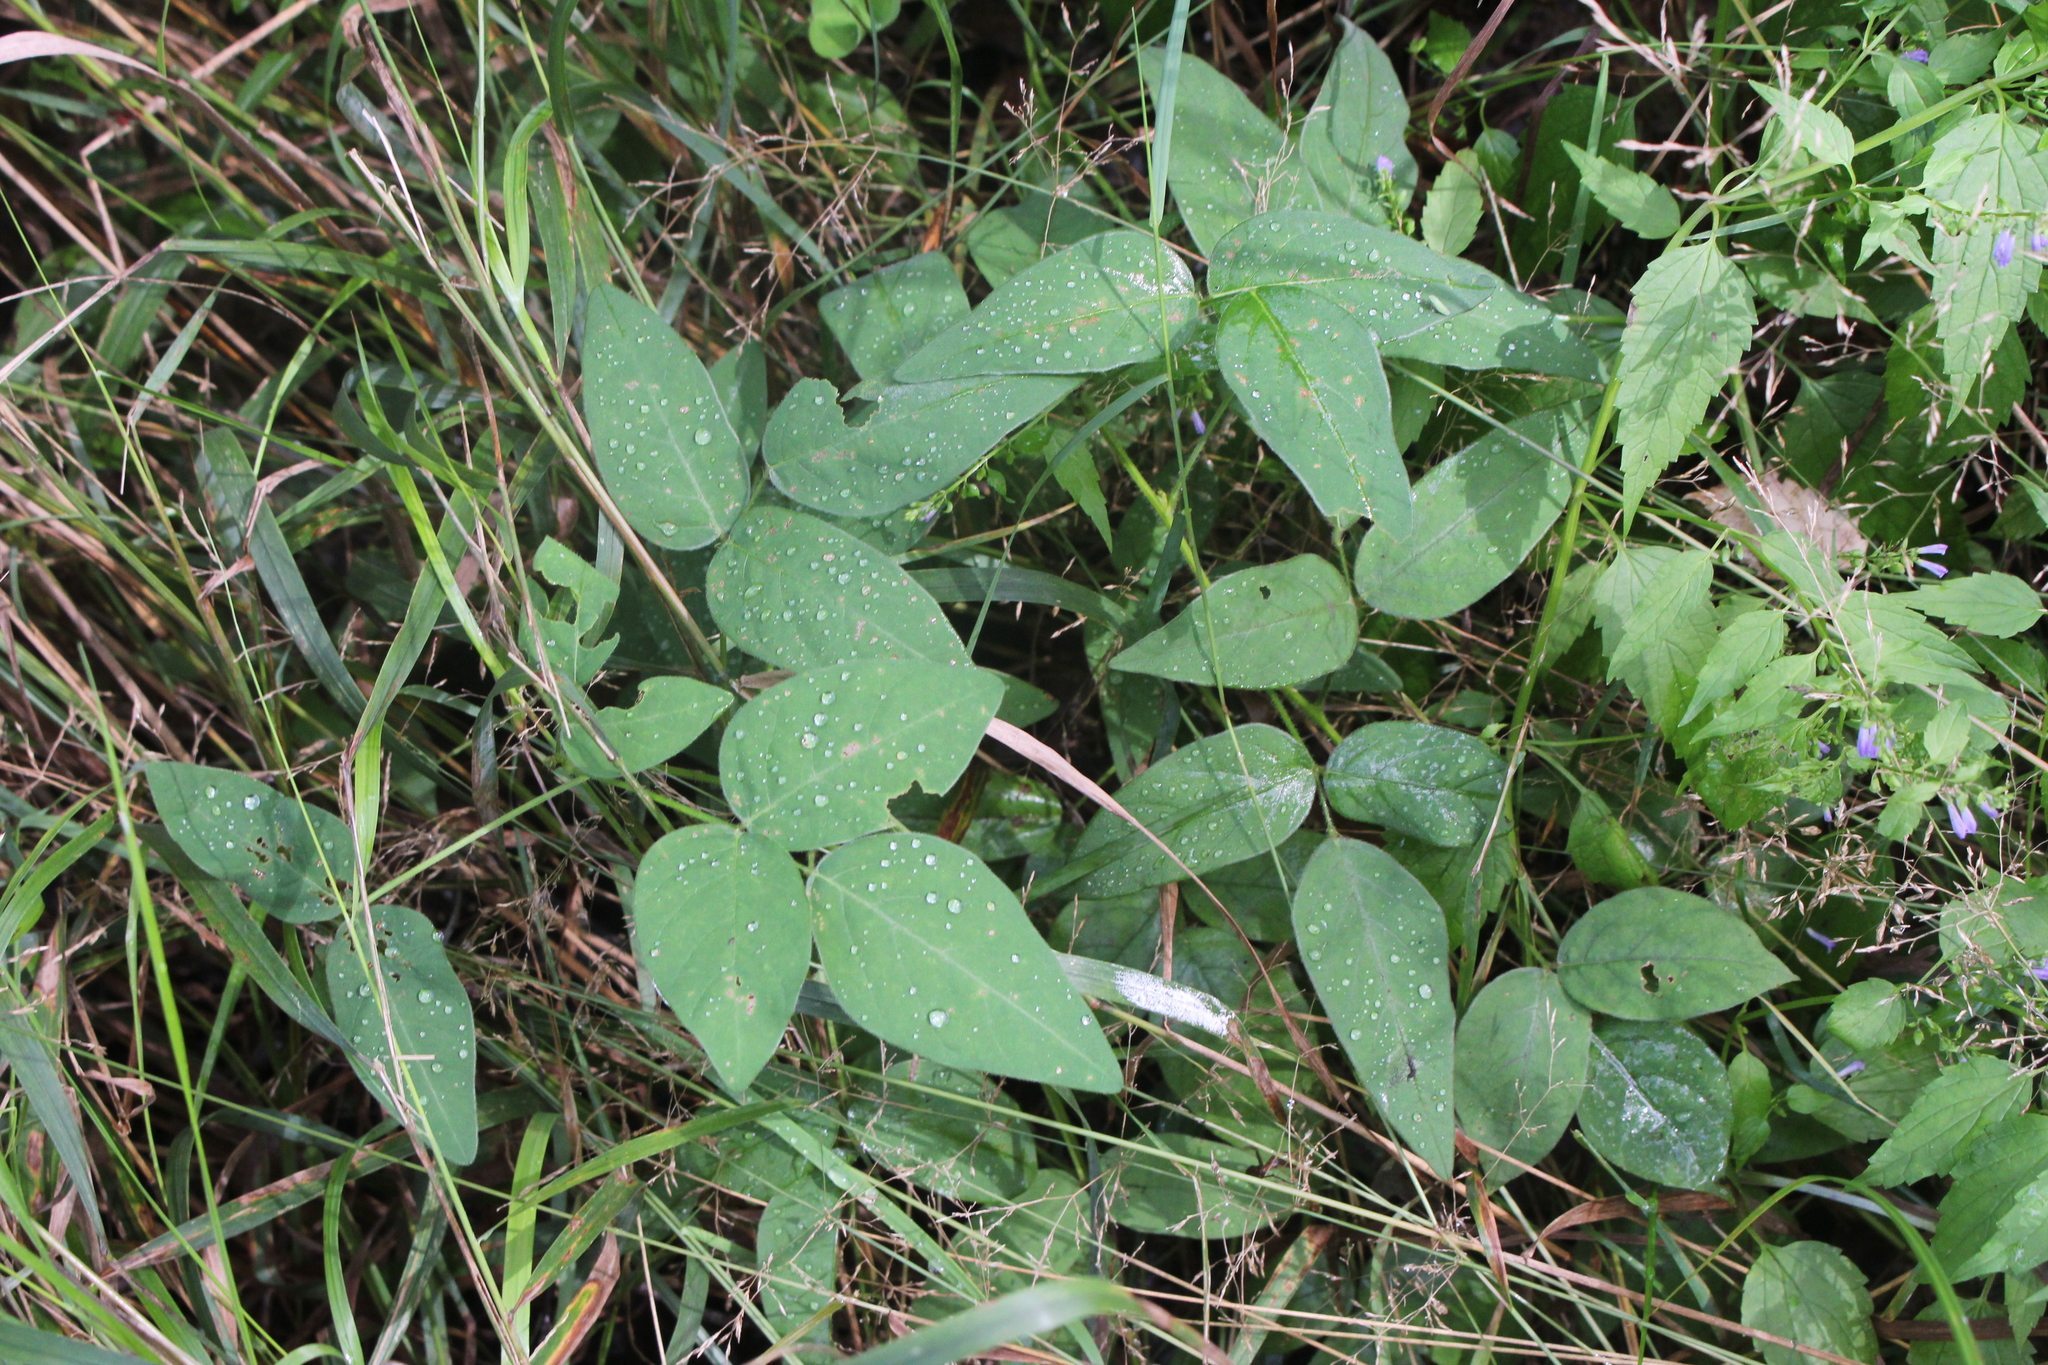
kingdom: Plantae
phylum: Tracheophyta
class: Magnoliopsida
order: Fabales
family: Fabaceae
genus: Amphicarpaea
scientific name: Amphicarpaea bracteata
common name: American hog peanut
